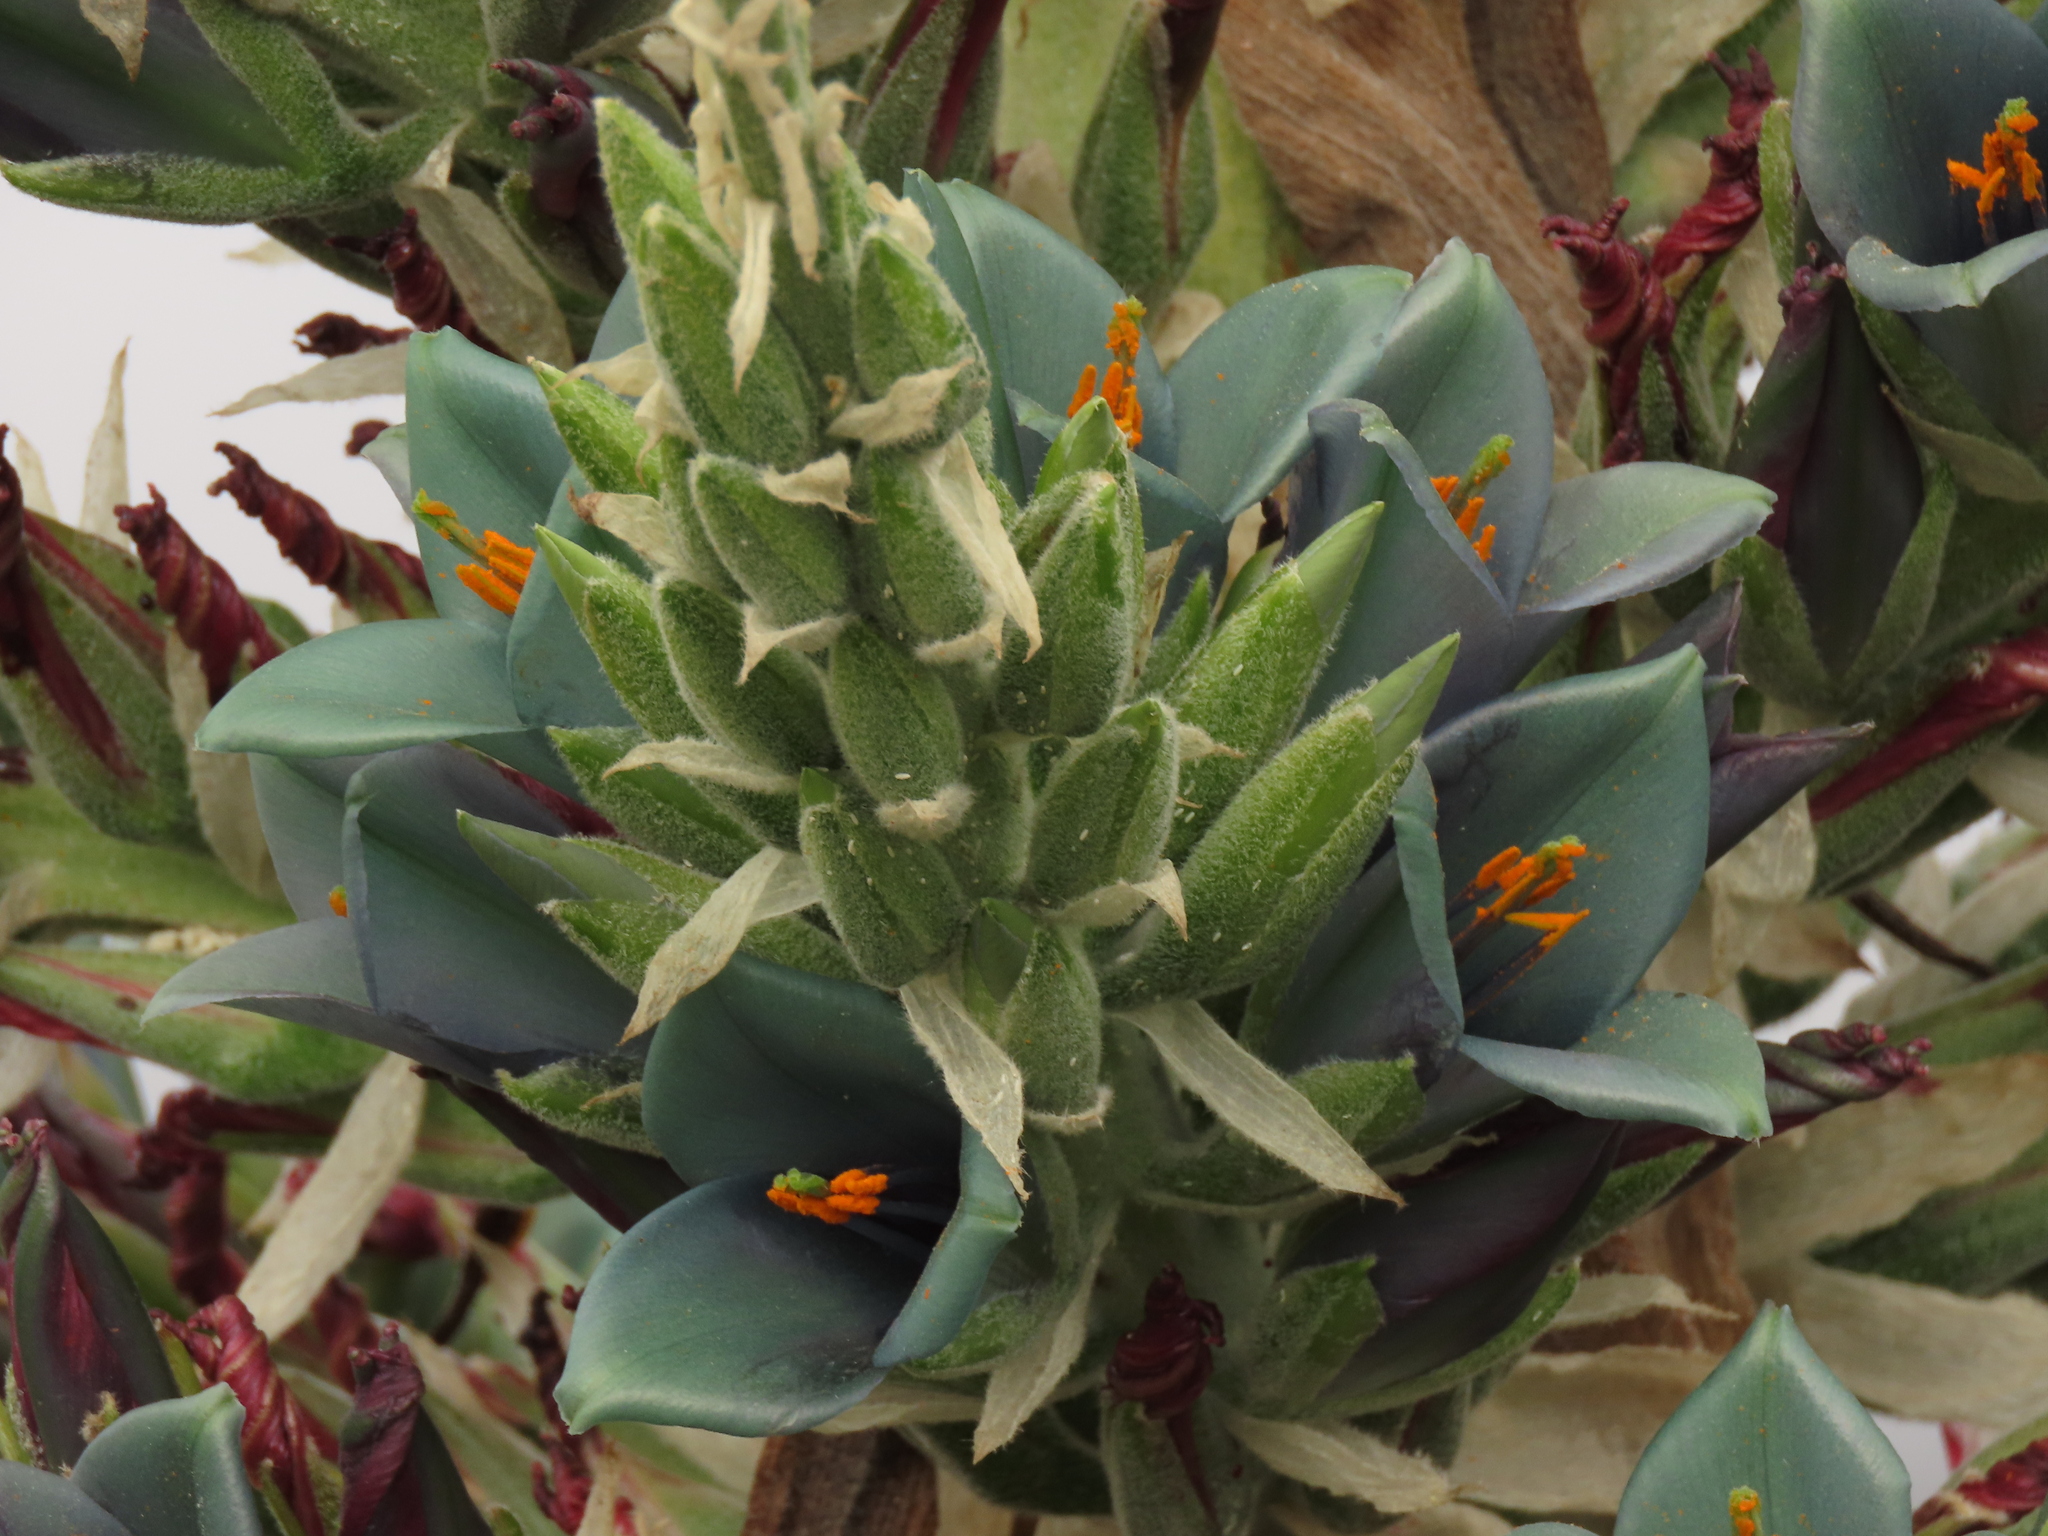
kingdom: Plantae
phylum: Tracheophyta
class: Liliopsida
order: Poales
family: Bromeliaceae
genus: Puya
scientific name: Puya alpestris
